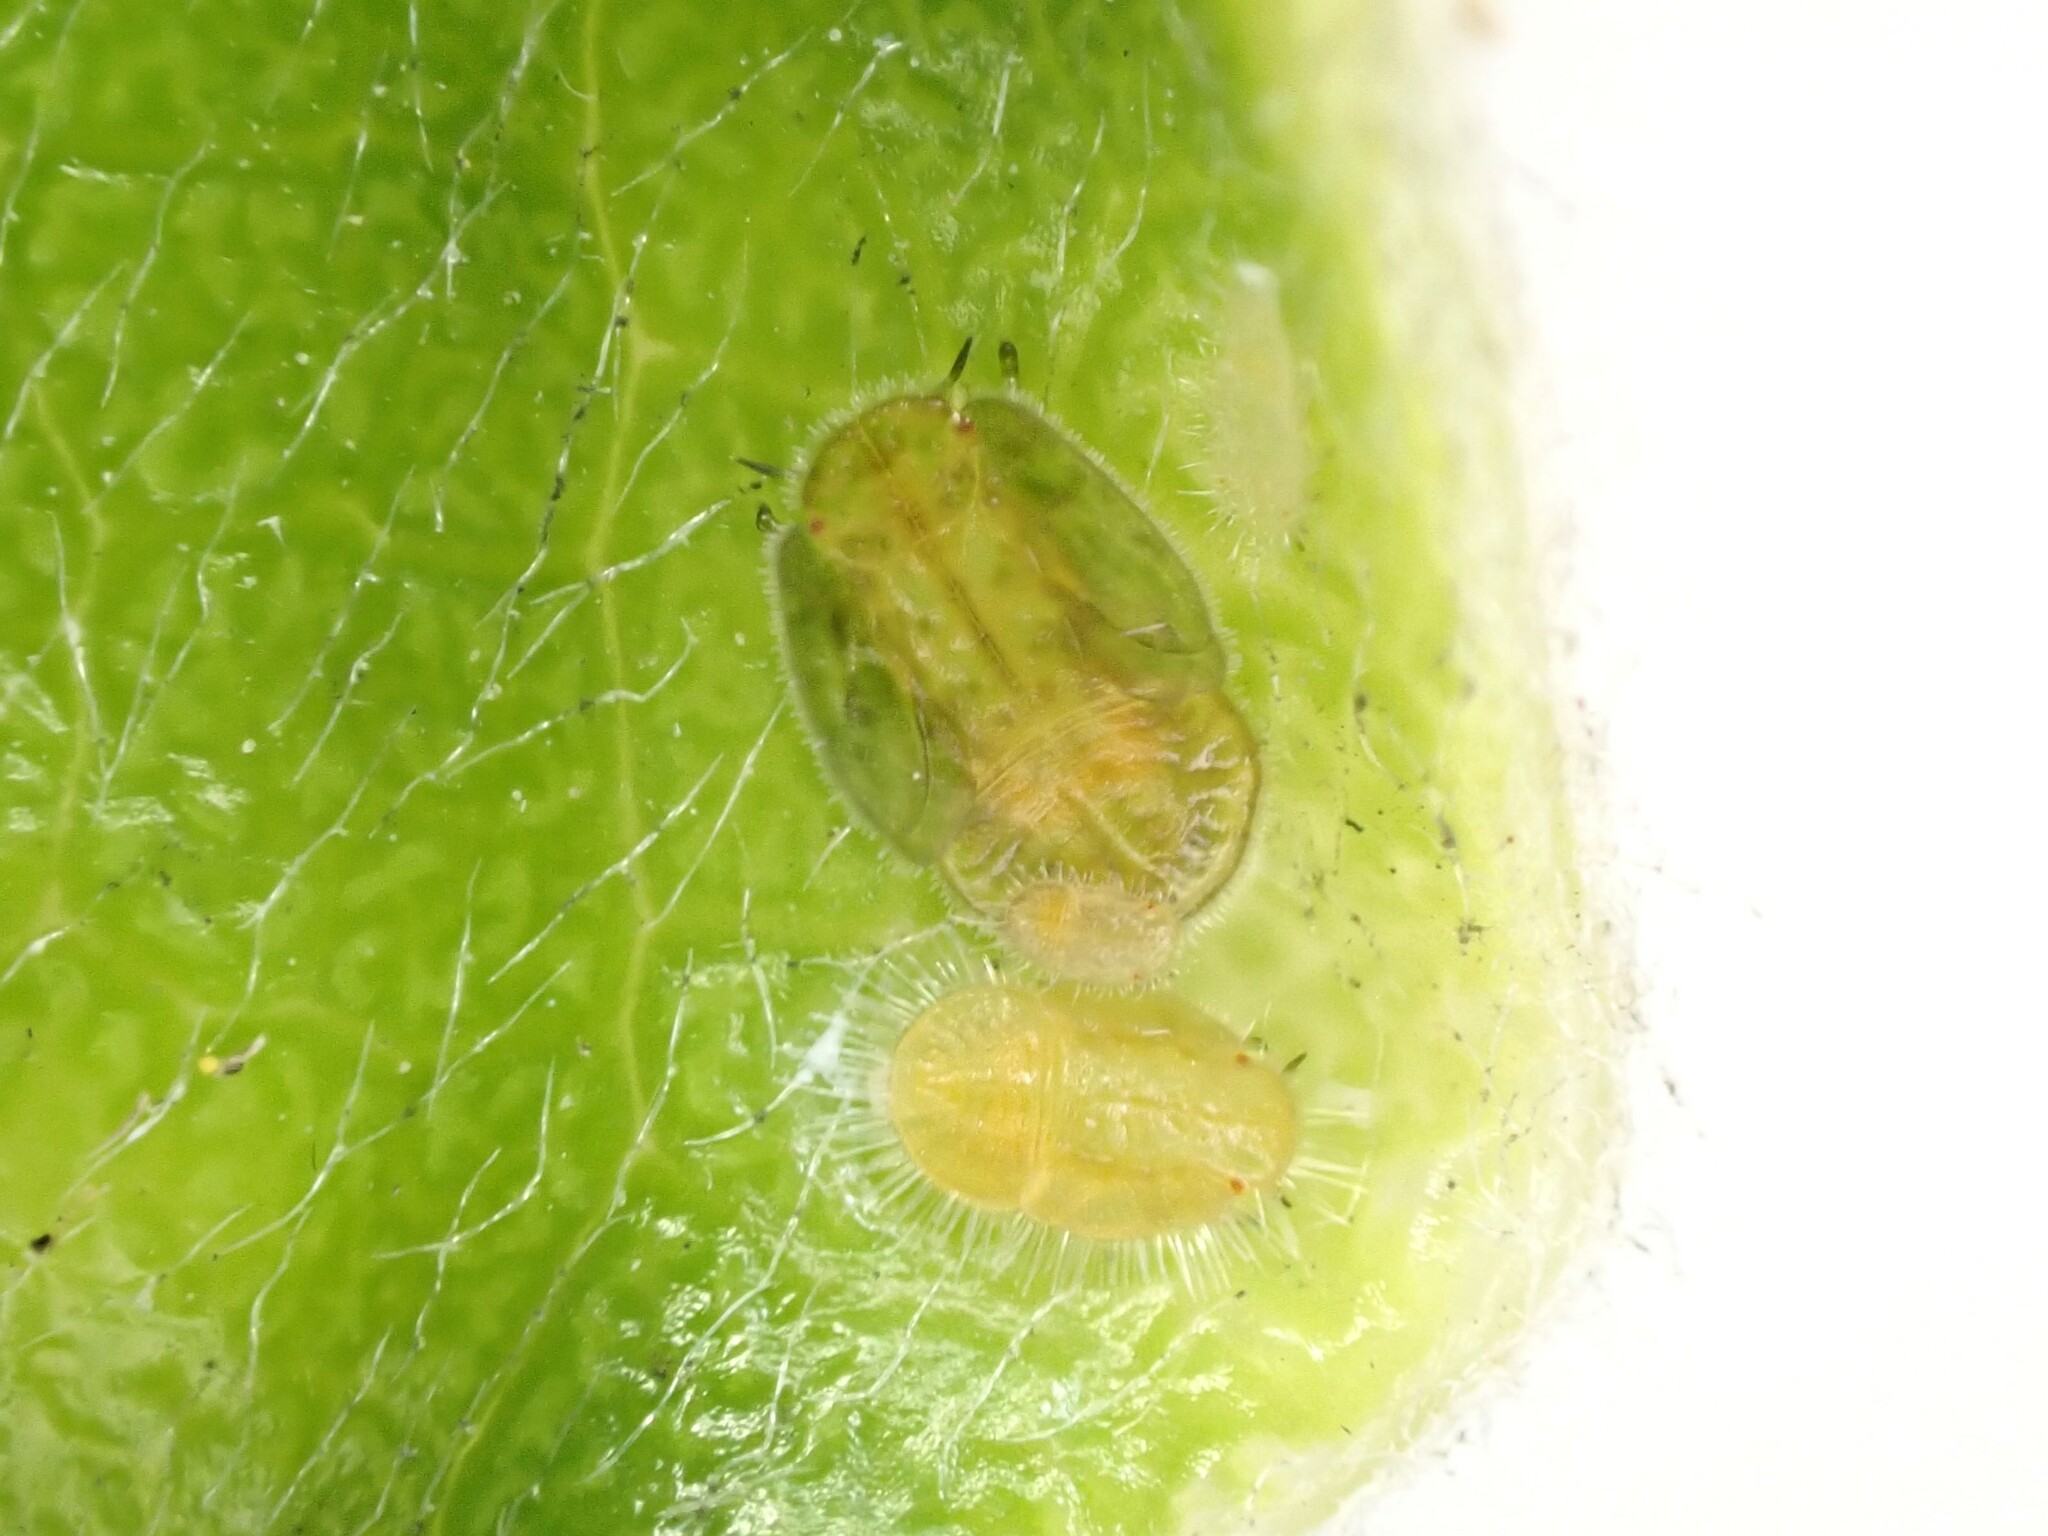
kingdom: Animalia
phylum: Arthropoda
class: Insecta
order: Hemiptera
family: Triozidae
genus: Powellia
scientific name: Powellia vitreoradiata
